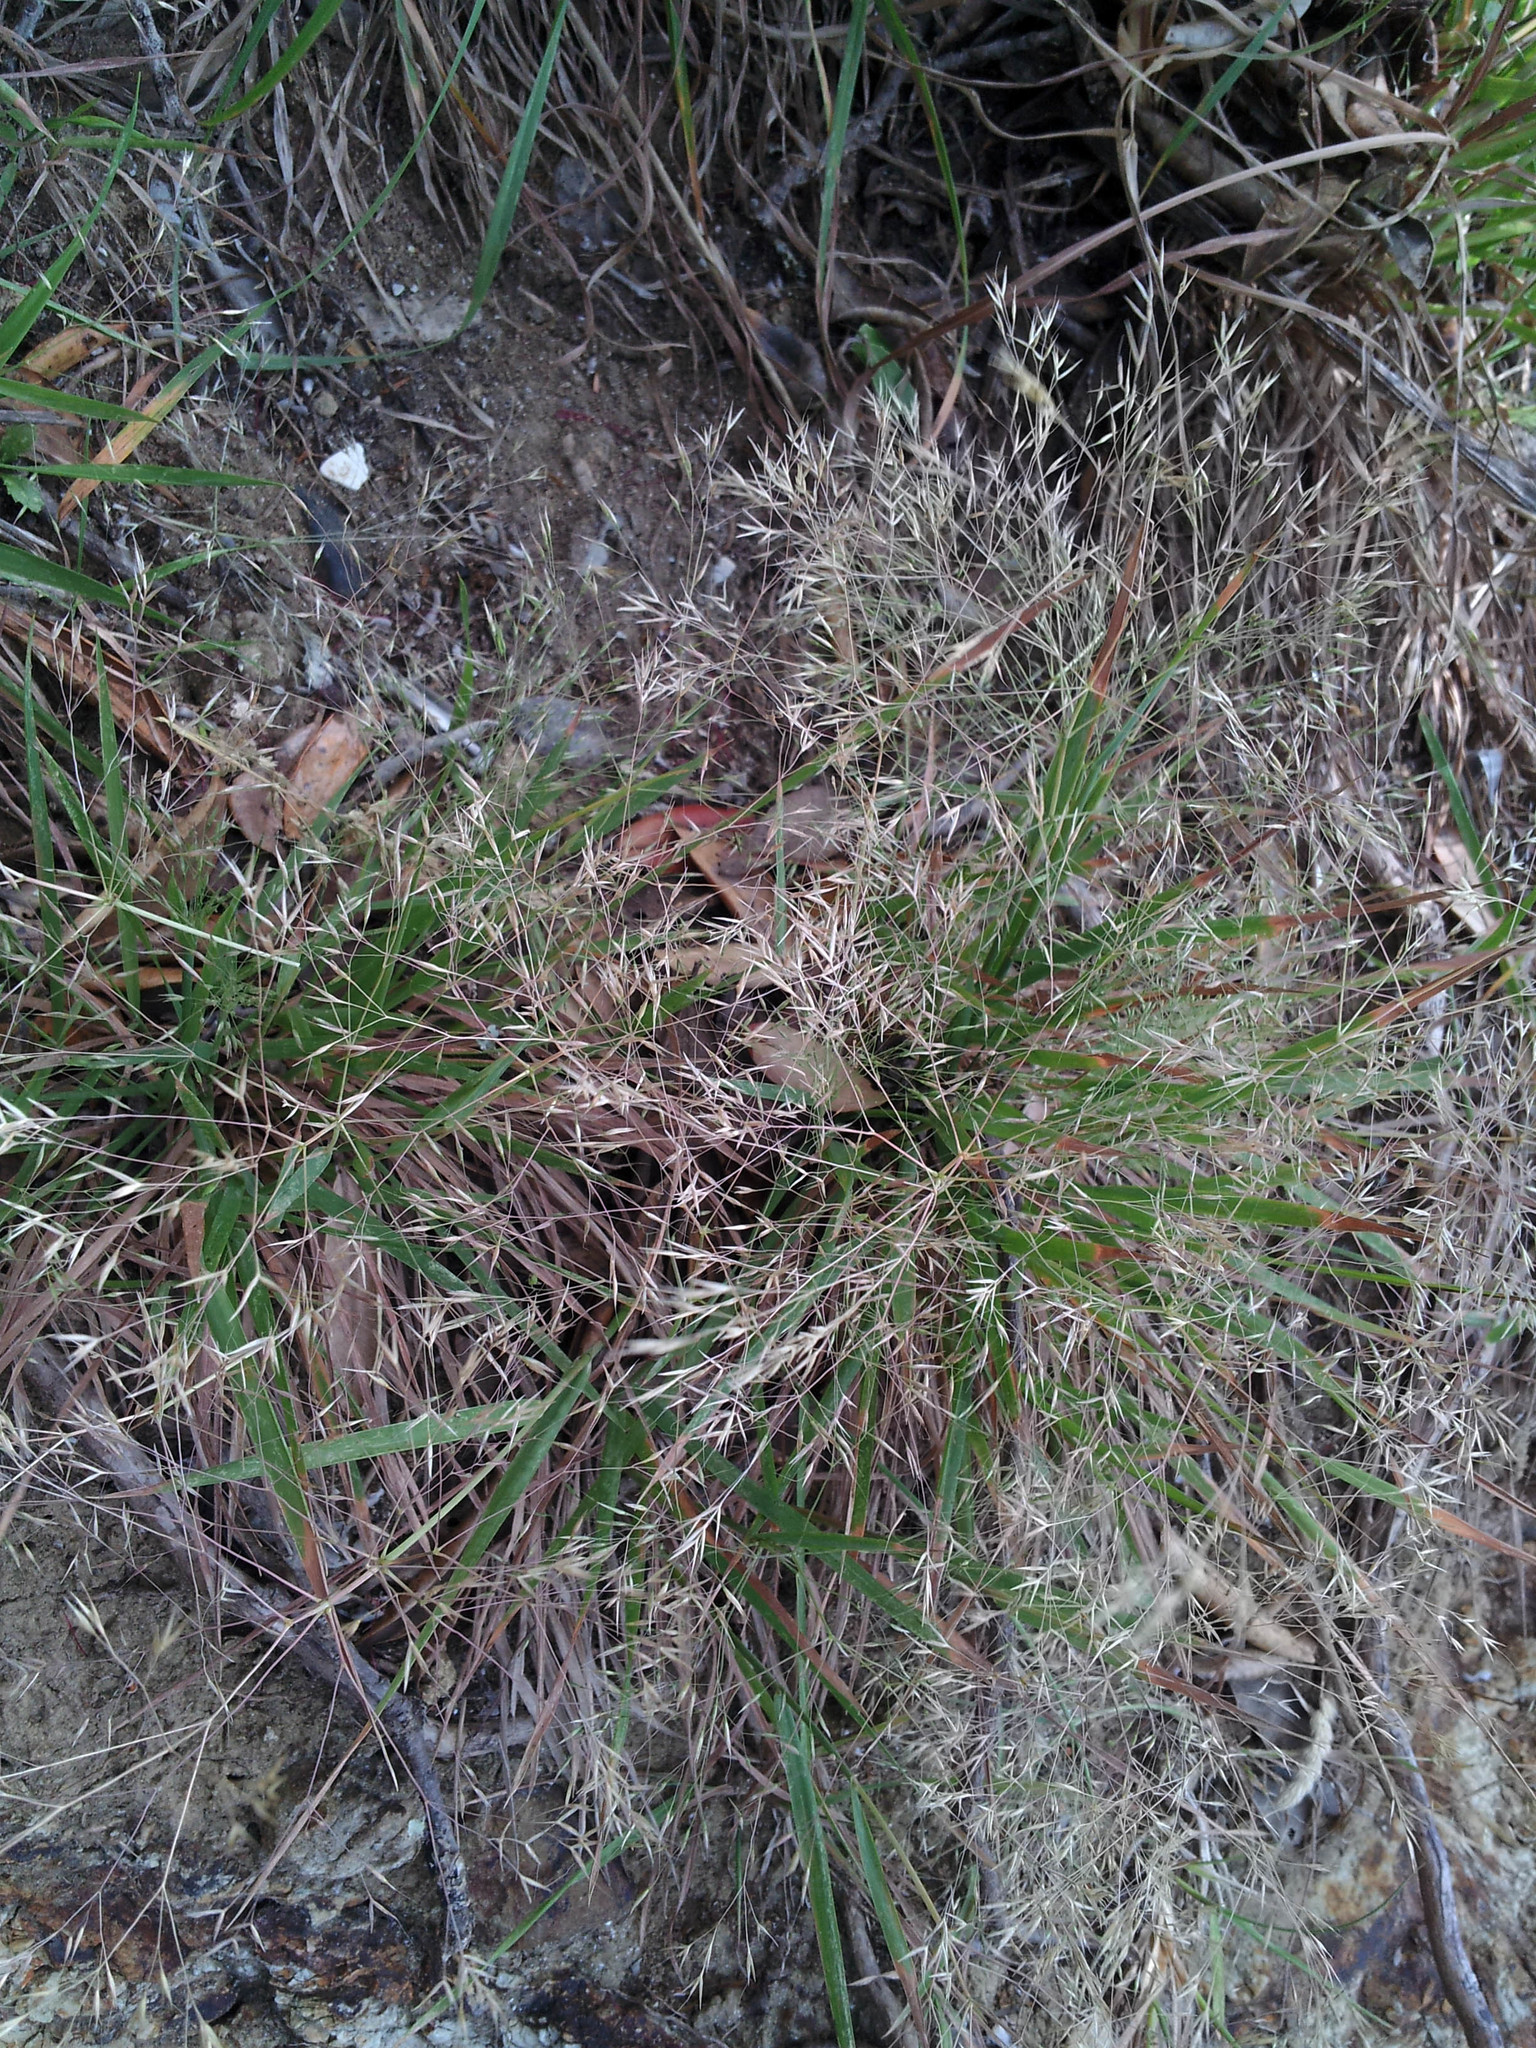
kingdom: Plantae
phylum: Tracheophyta
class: Liliopsida
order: Poales
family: Poaceae
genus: Lachnagrostis
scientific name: Lachnagrostis billardierei
